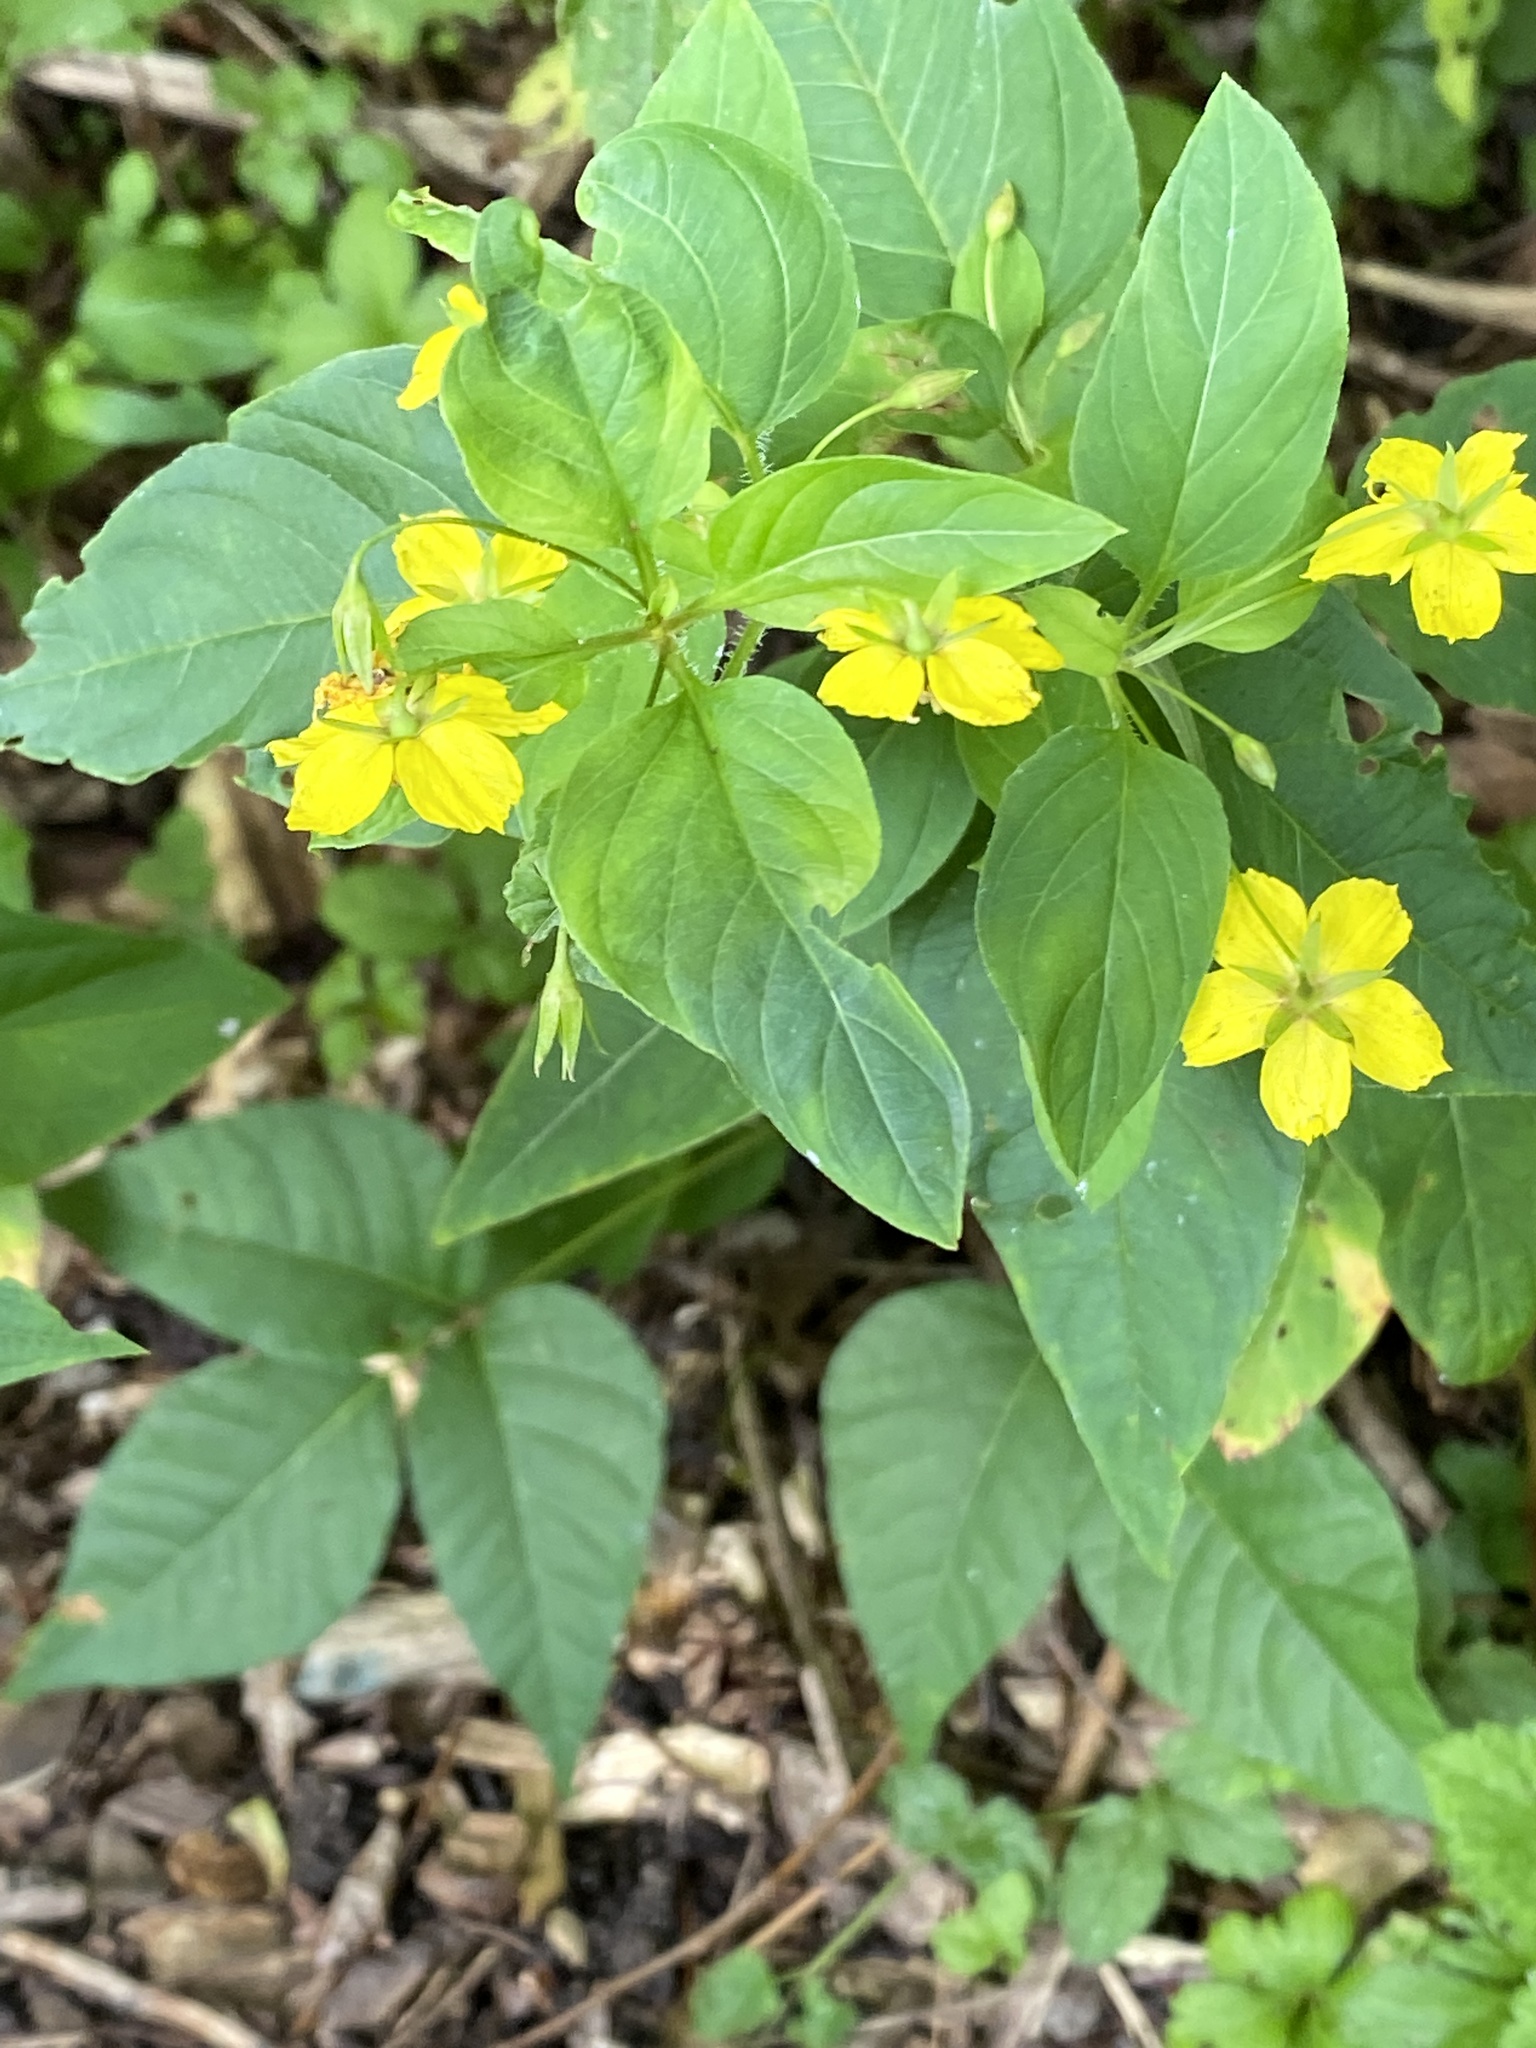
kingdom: Plantae
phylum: Tracheophyta
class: Magnoliopsida
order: Ericales
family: Primulaceae
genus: Lysimachia
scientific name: Lysimachia ciliata
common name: Fringed loosestrife
